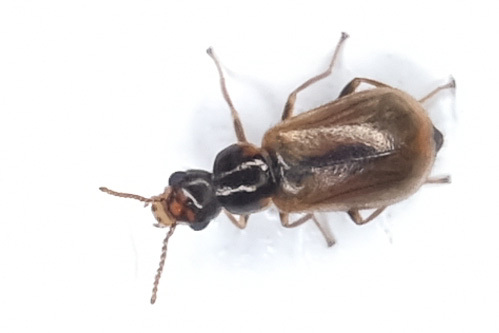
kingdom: Animalia
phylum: Arthropoda
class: Insecta
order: Coleoptera
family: Malachiidae
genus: Attalus
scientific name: Attalus
